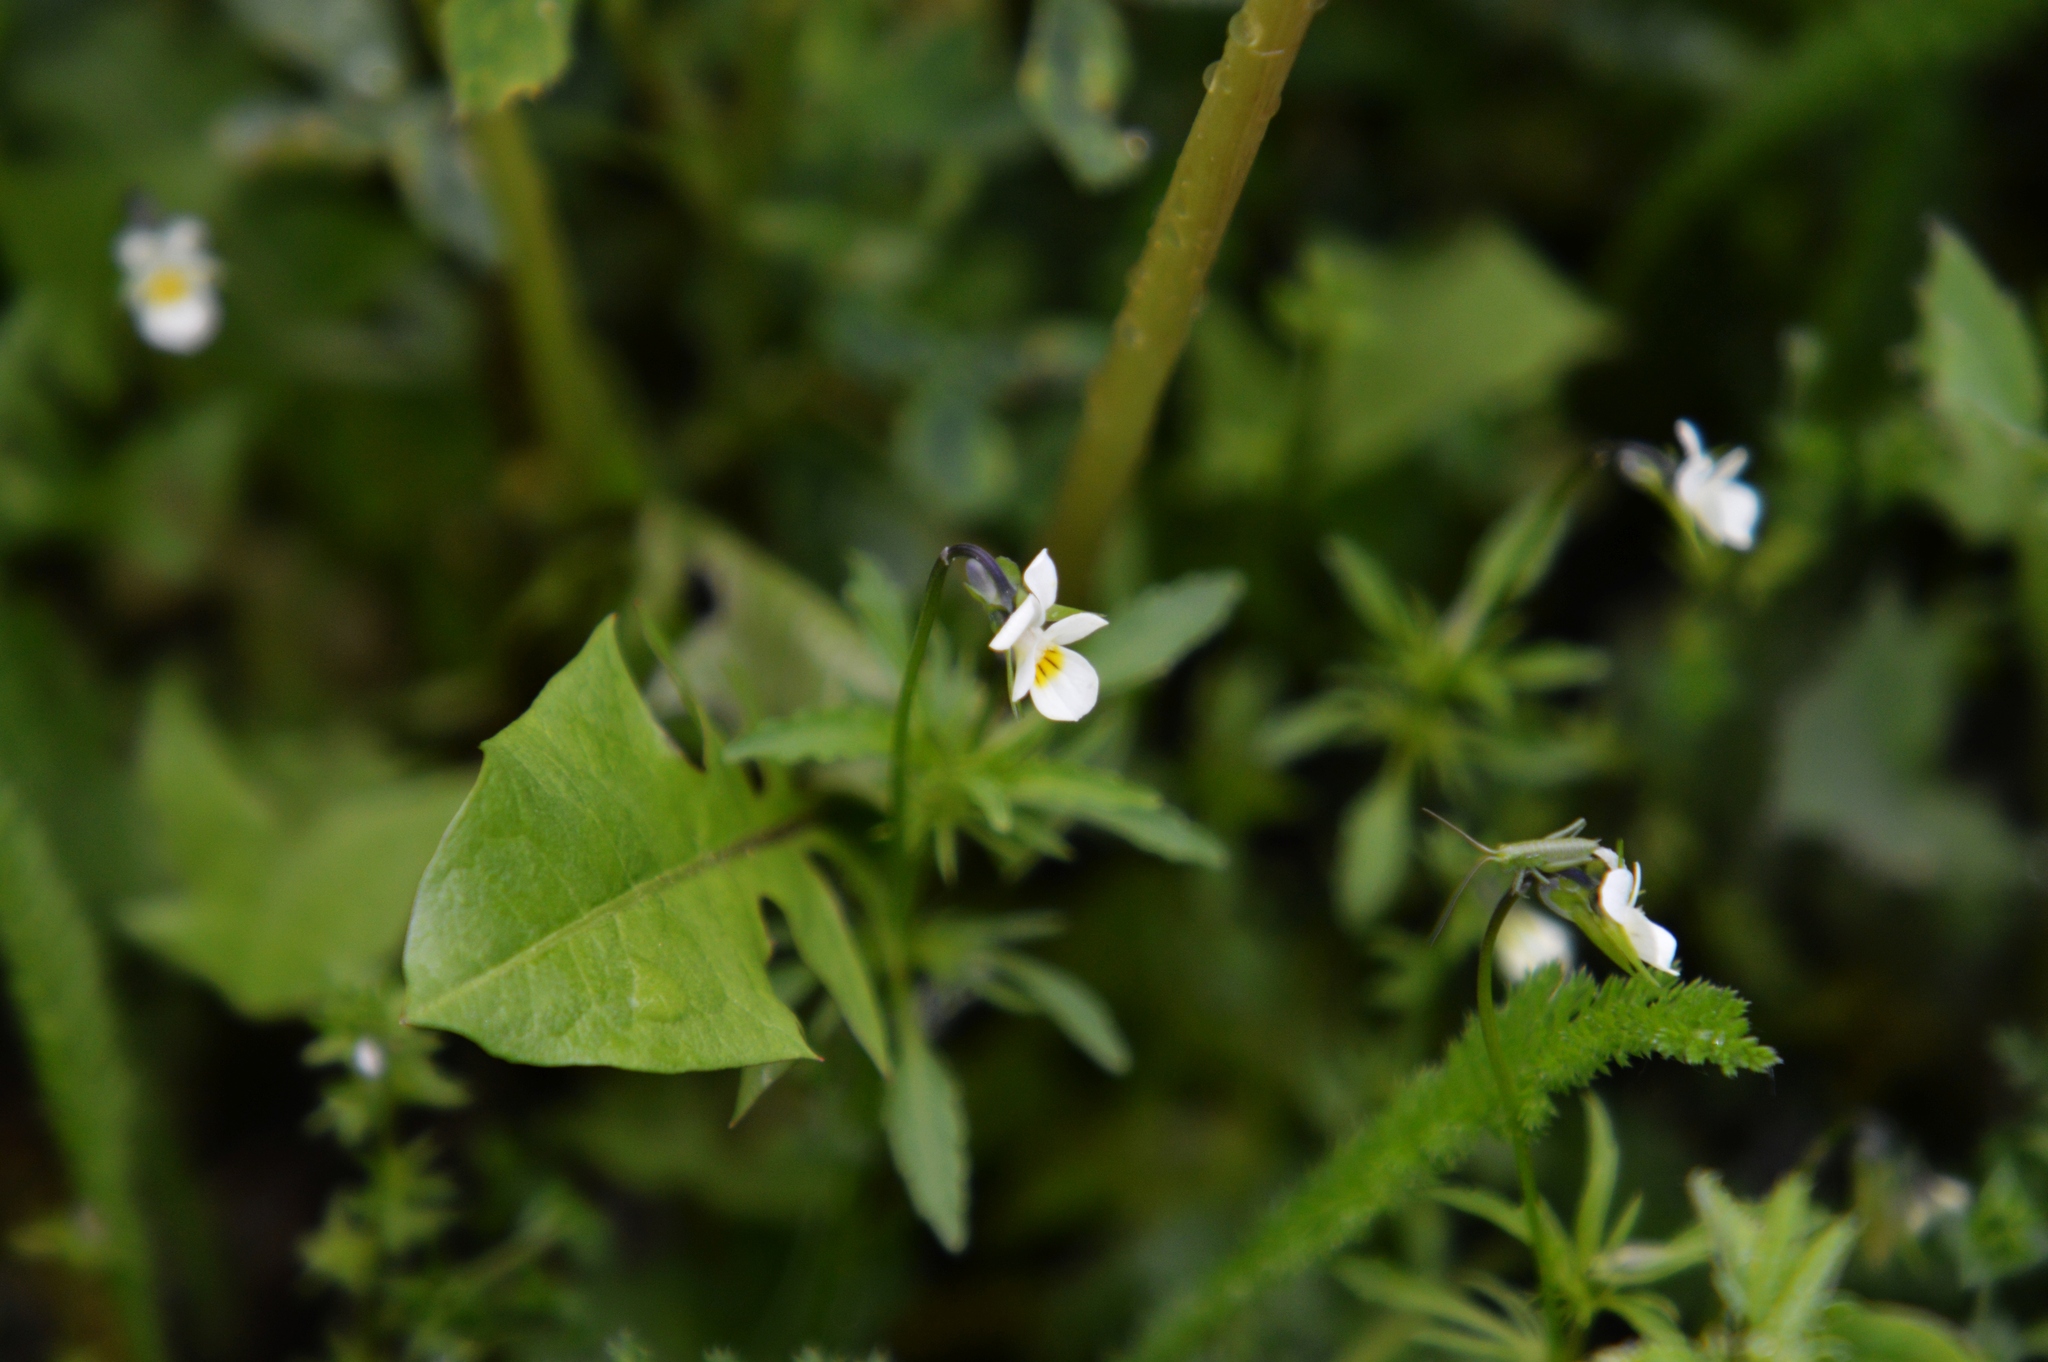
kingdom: Plantae
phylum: Tracheophyta
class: Magnoliopsida
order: Malpighiales
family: Violaceae
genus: Viola
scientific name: Viola arvensis
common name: Field pansy
